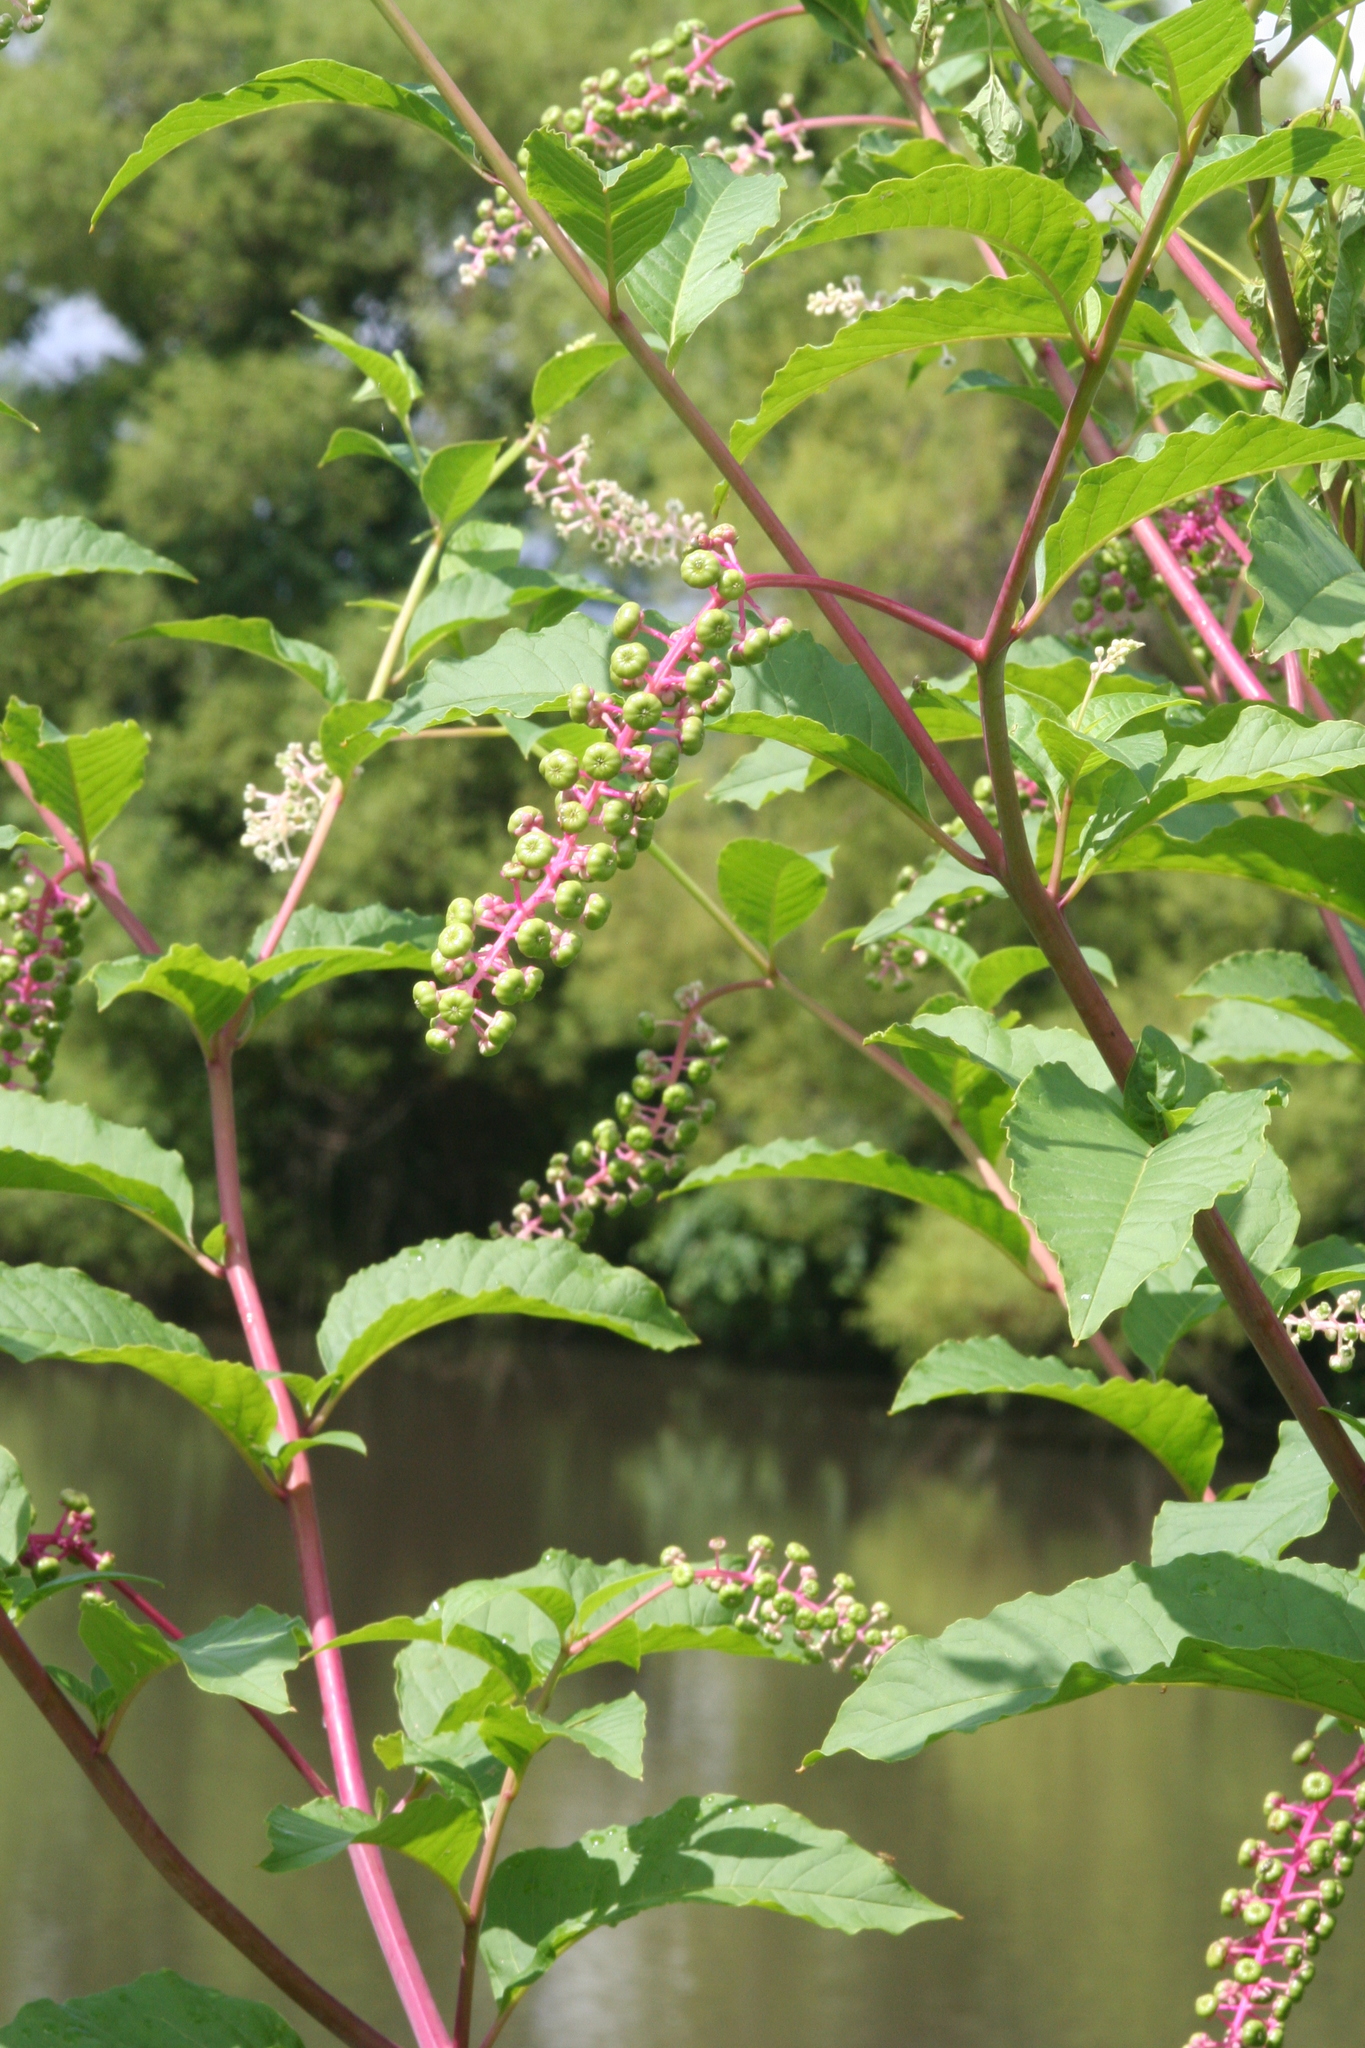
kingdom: Plantae
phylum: Tracheophyta
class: Magnoliopsida
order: Caryophyllales
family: Phytolaccaceae
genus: Phytolacca
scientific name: Phytolacca americana
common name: American pokeweed
